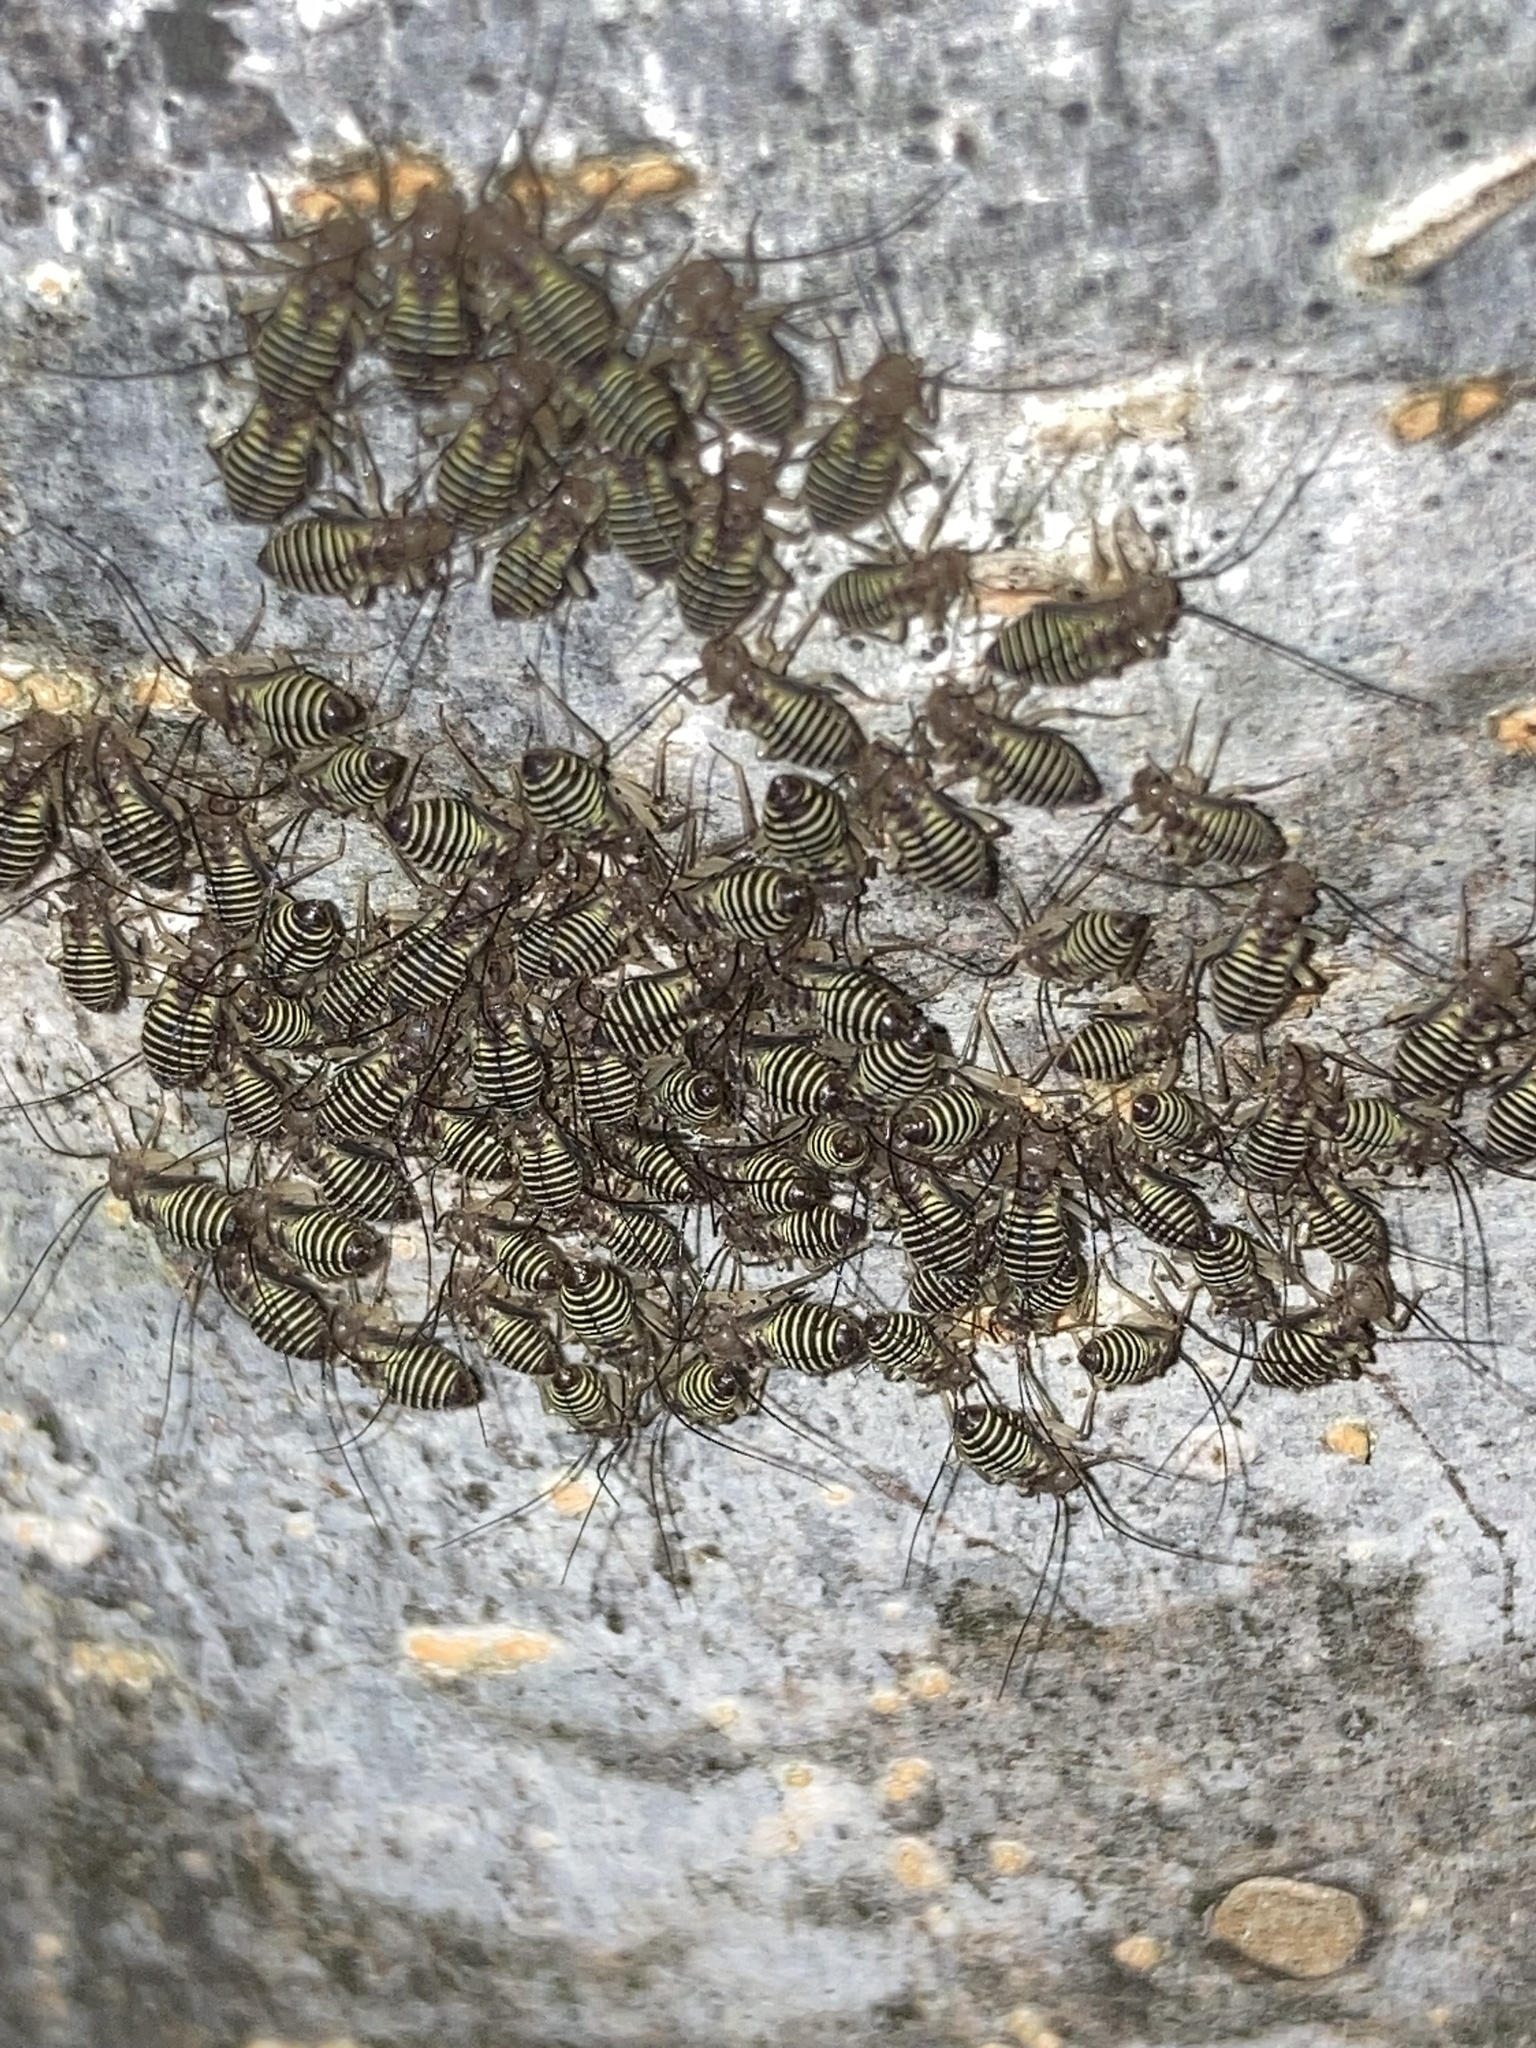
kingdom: Animalia
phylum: Arthropoda
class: Insecta
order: Psocodea
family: Psocidae
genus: Cerastipsocus
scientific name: Cerastipsocus venosus
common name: Tree cattle
